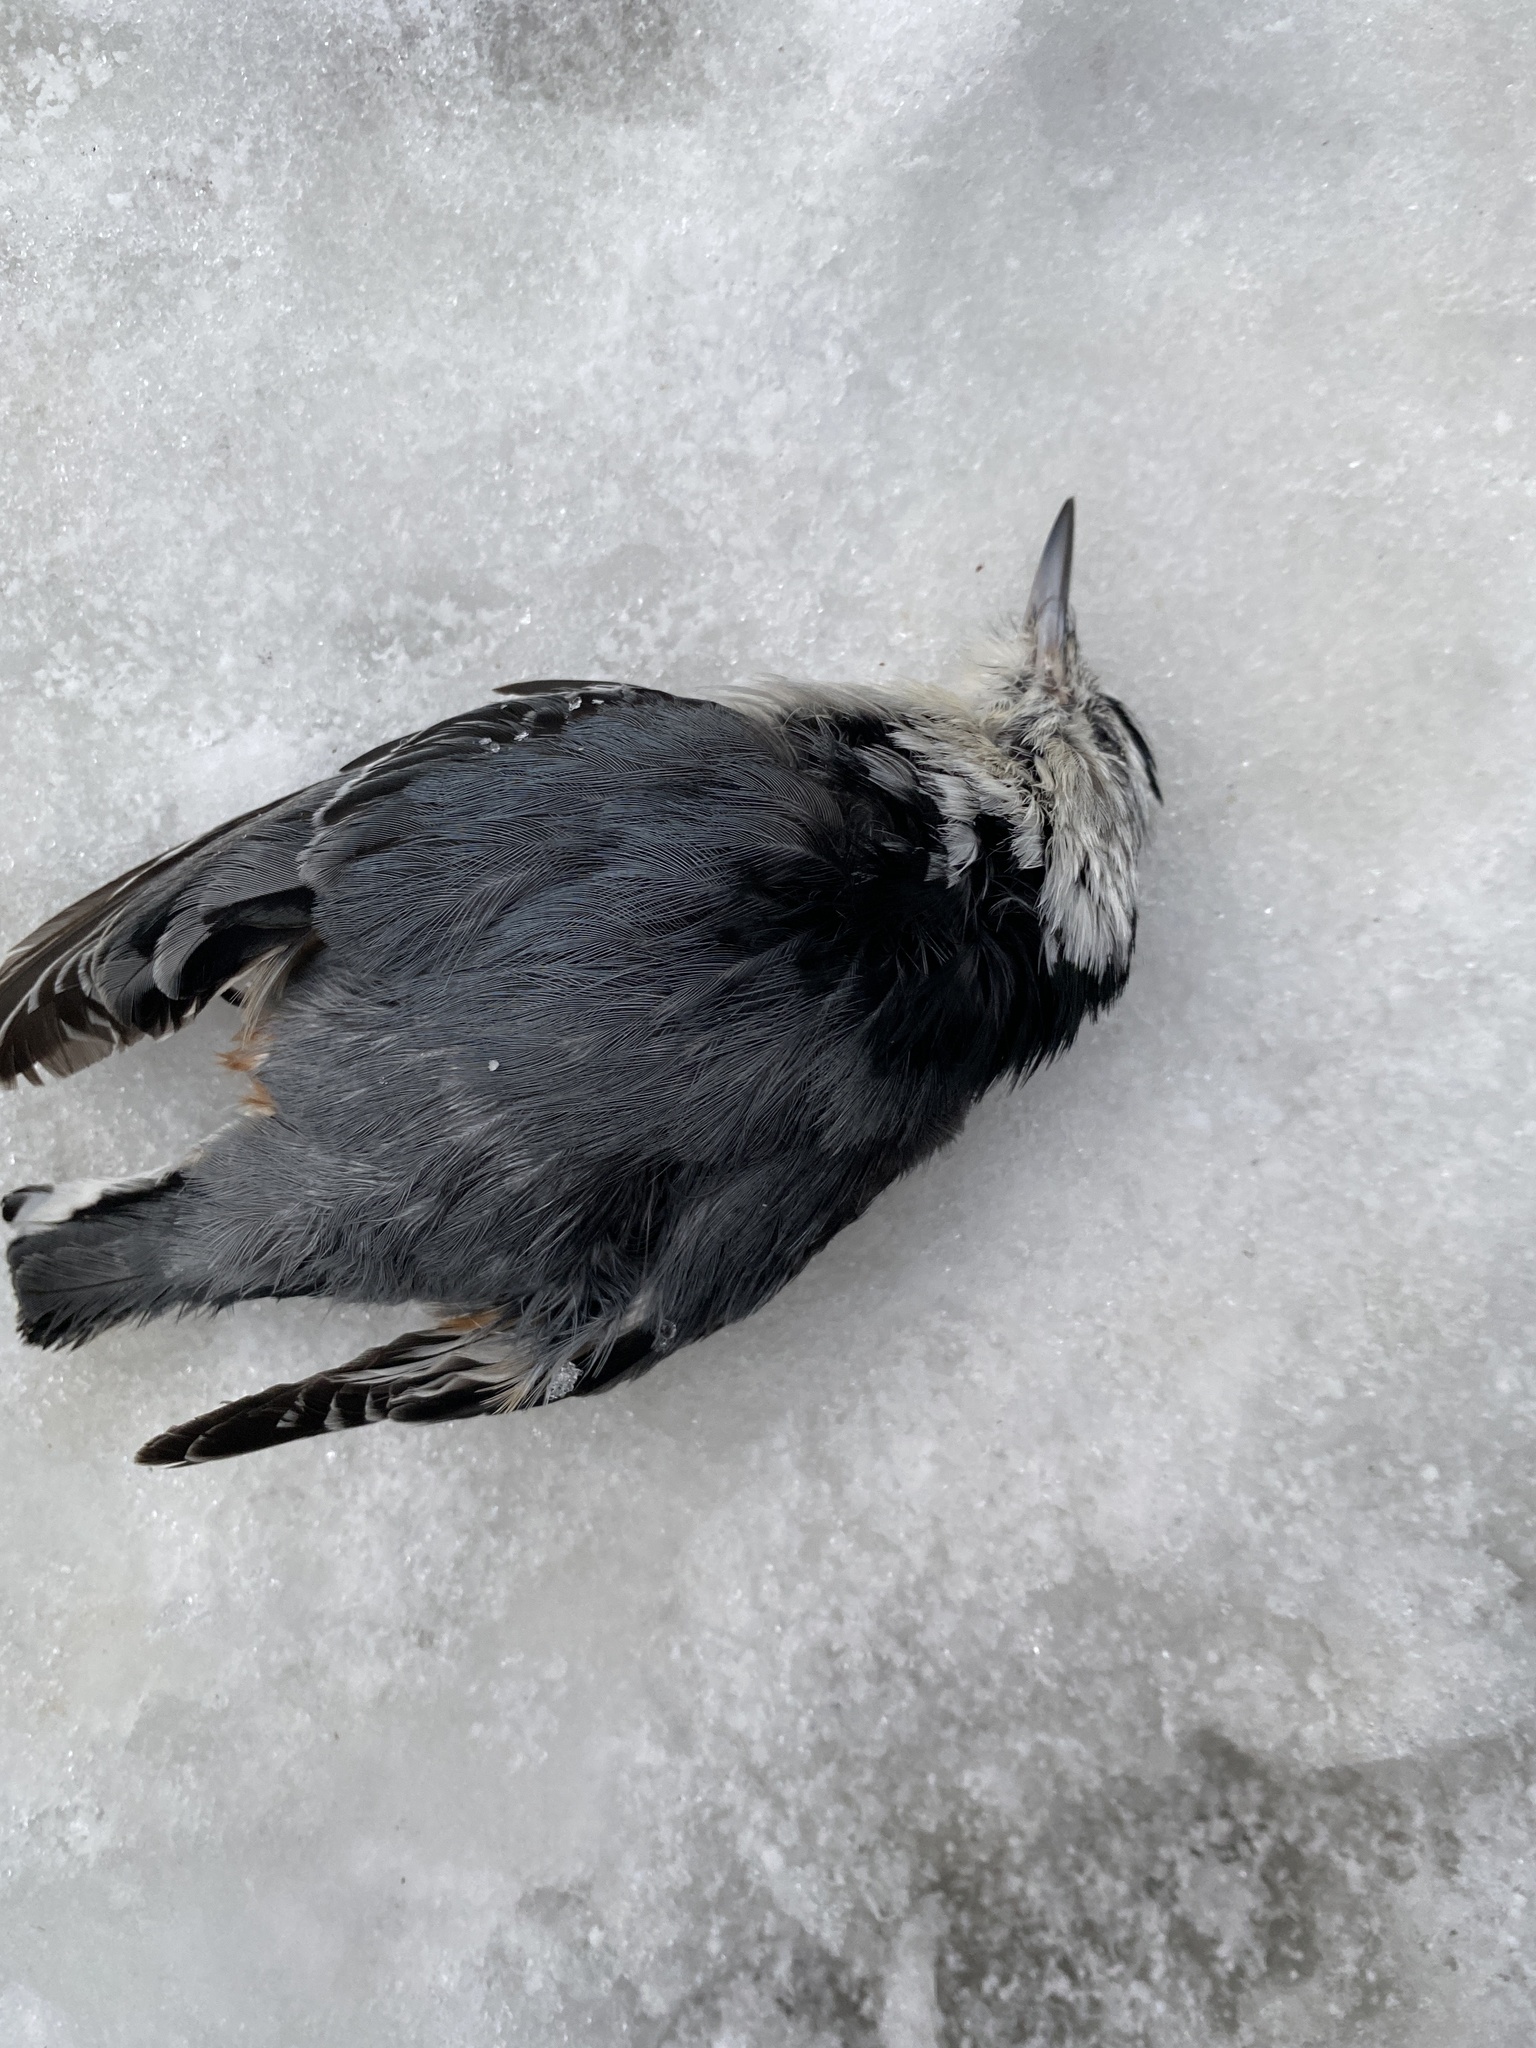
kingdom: Animalia
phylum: Chordata
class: Aves
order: Passeriformes
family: Sittidae
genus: Sitta
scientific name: Sitta carolinensis
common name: White-breasted nuthatch
